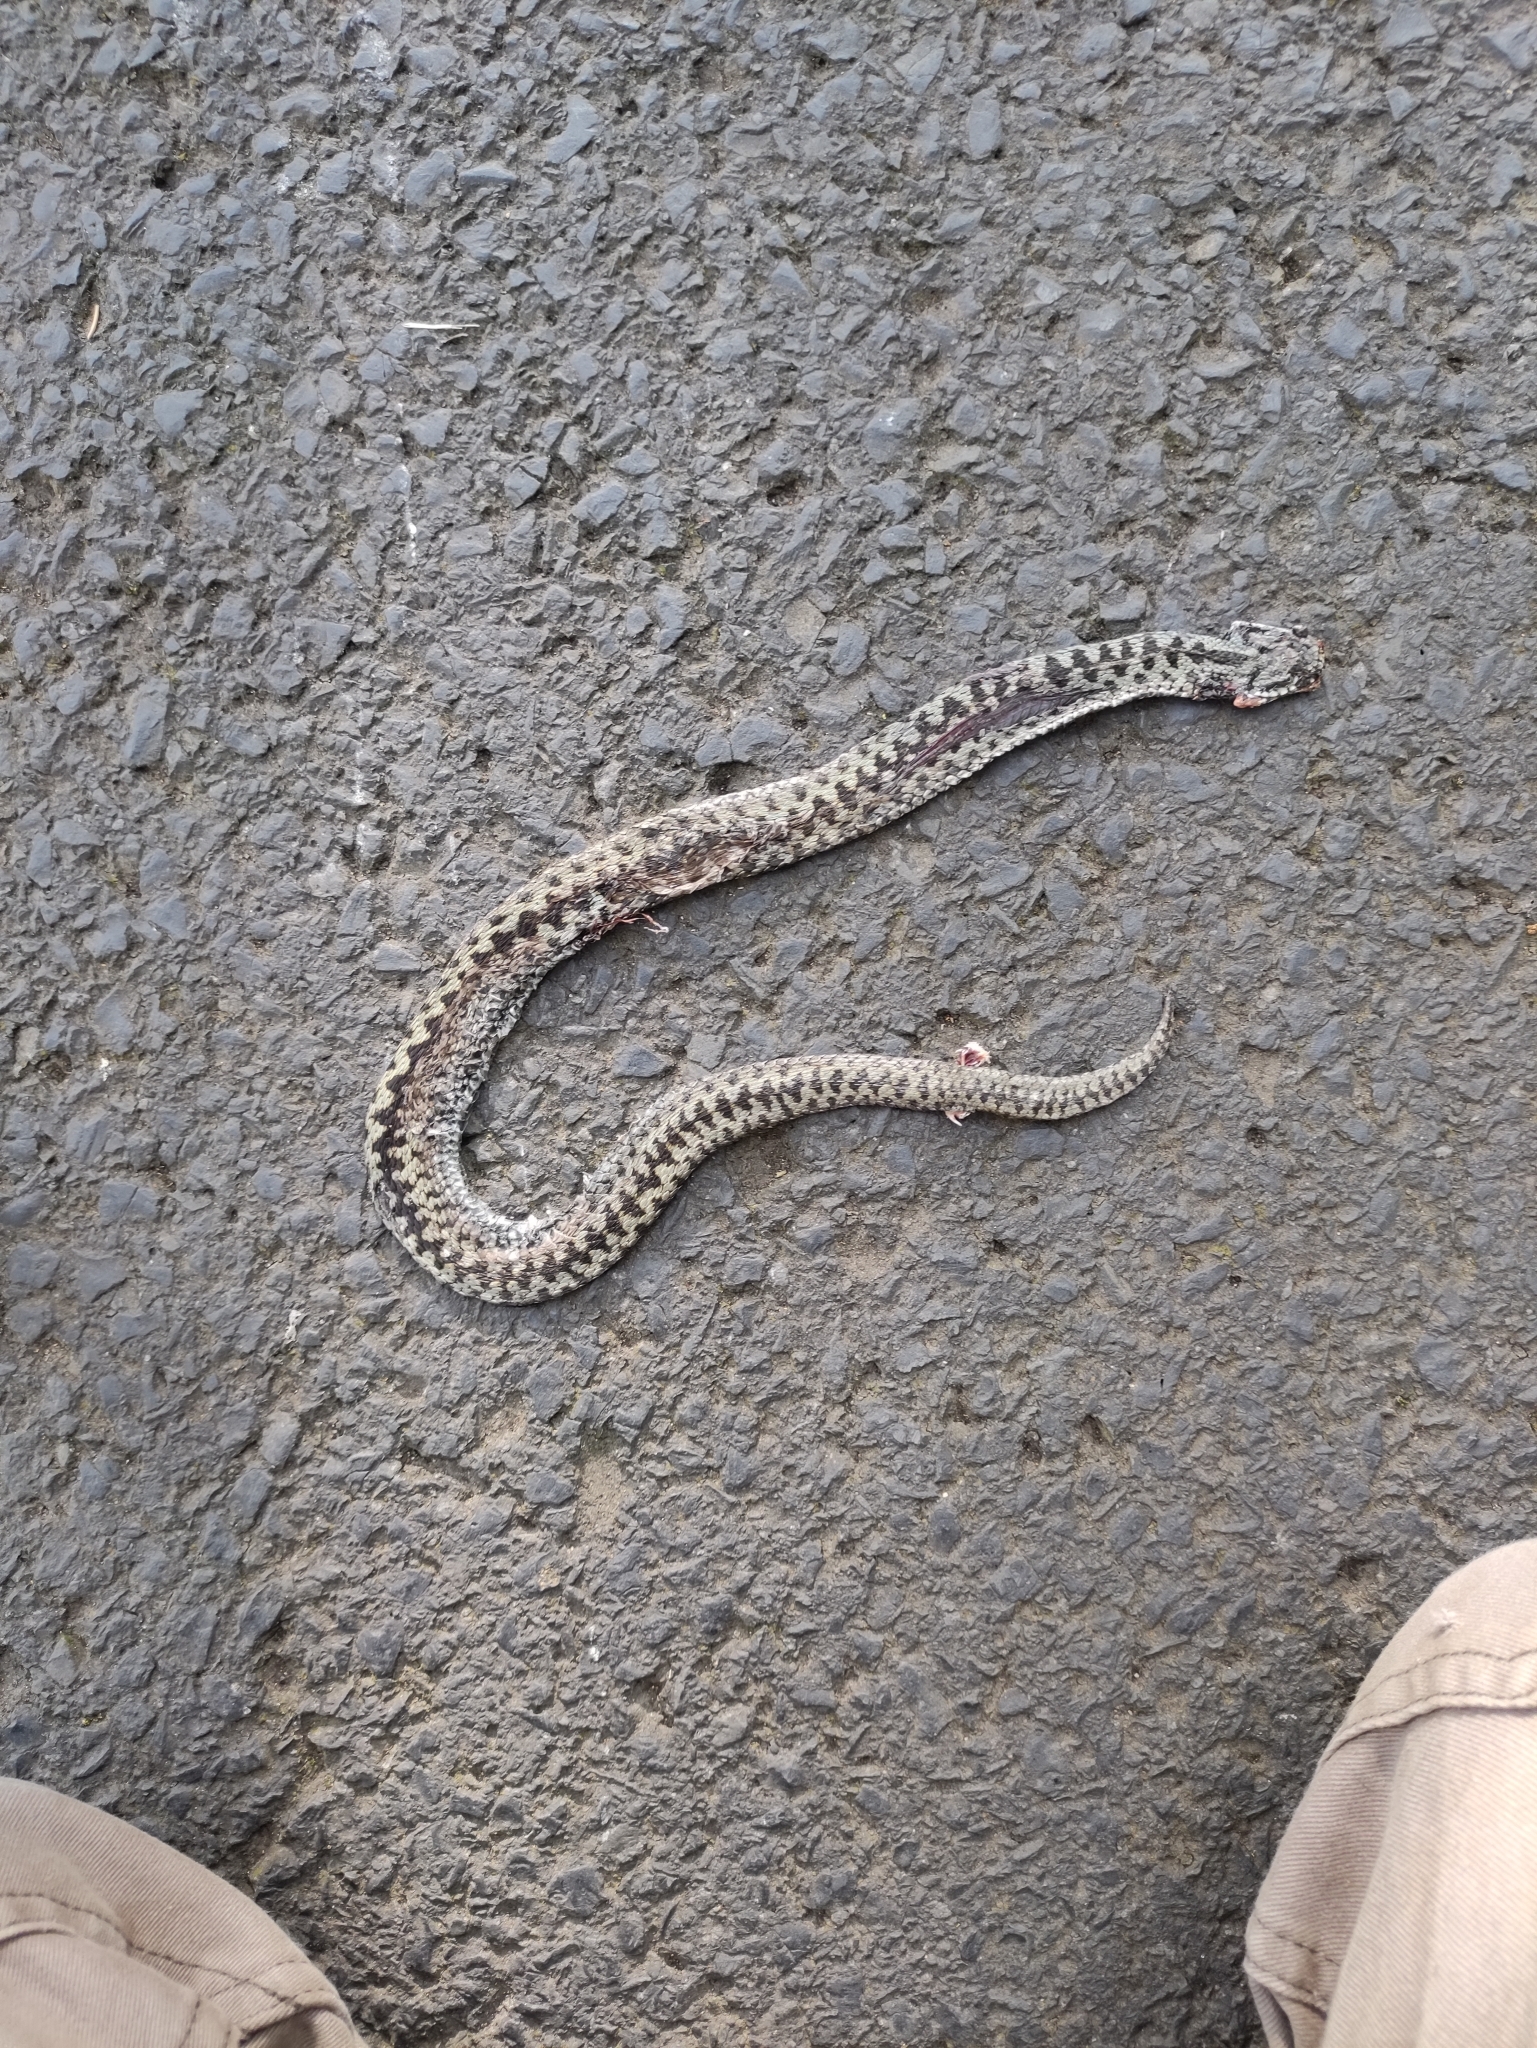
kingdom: Animalia
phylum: Chordata
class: Squamata
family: Viperidae
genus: Vipera
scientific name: Vipera berus
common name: Adder
